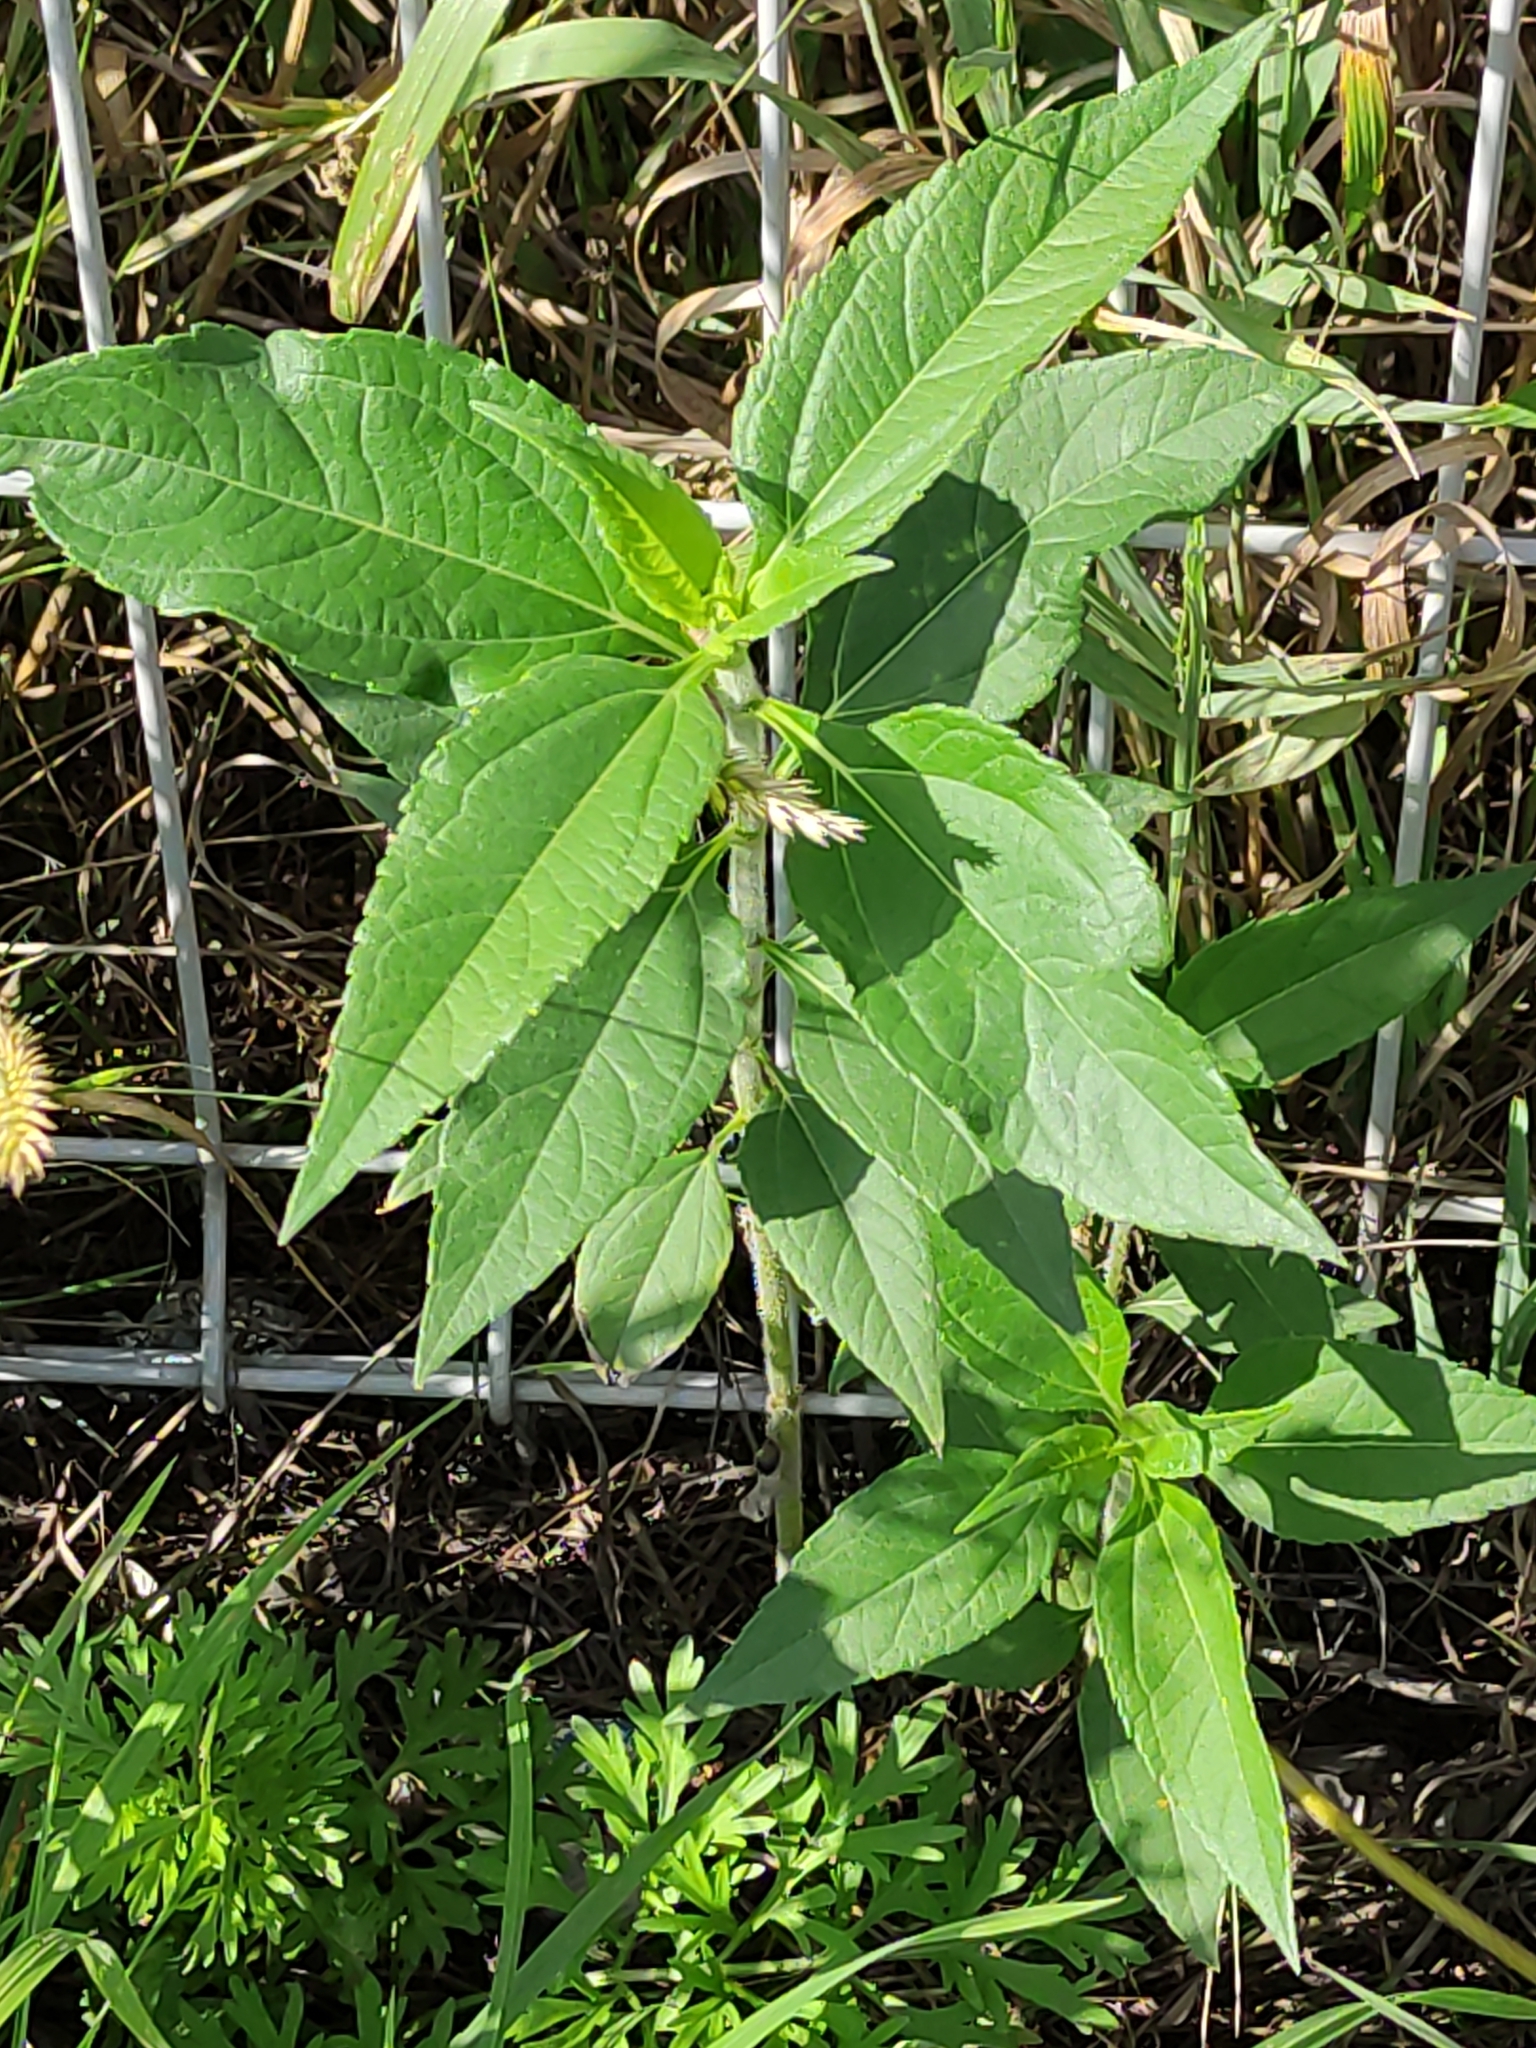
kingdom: Plantae
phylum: Tracheophyta
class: Magnoliopsida
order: Asterales
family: Asteraceae
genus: Helianthus
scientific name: Helianthus tuberosus
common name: Jerusalem artichoke
